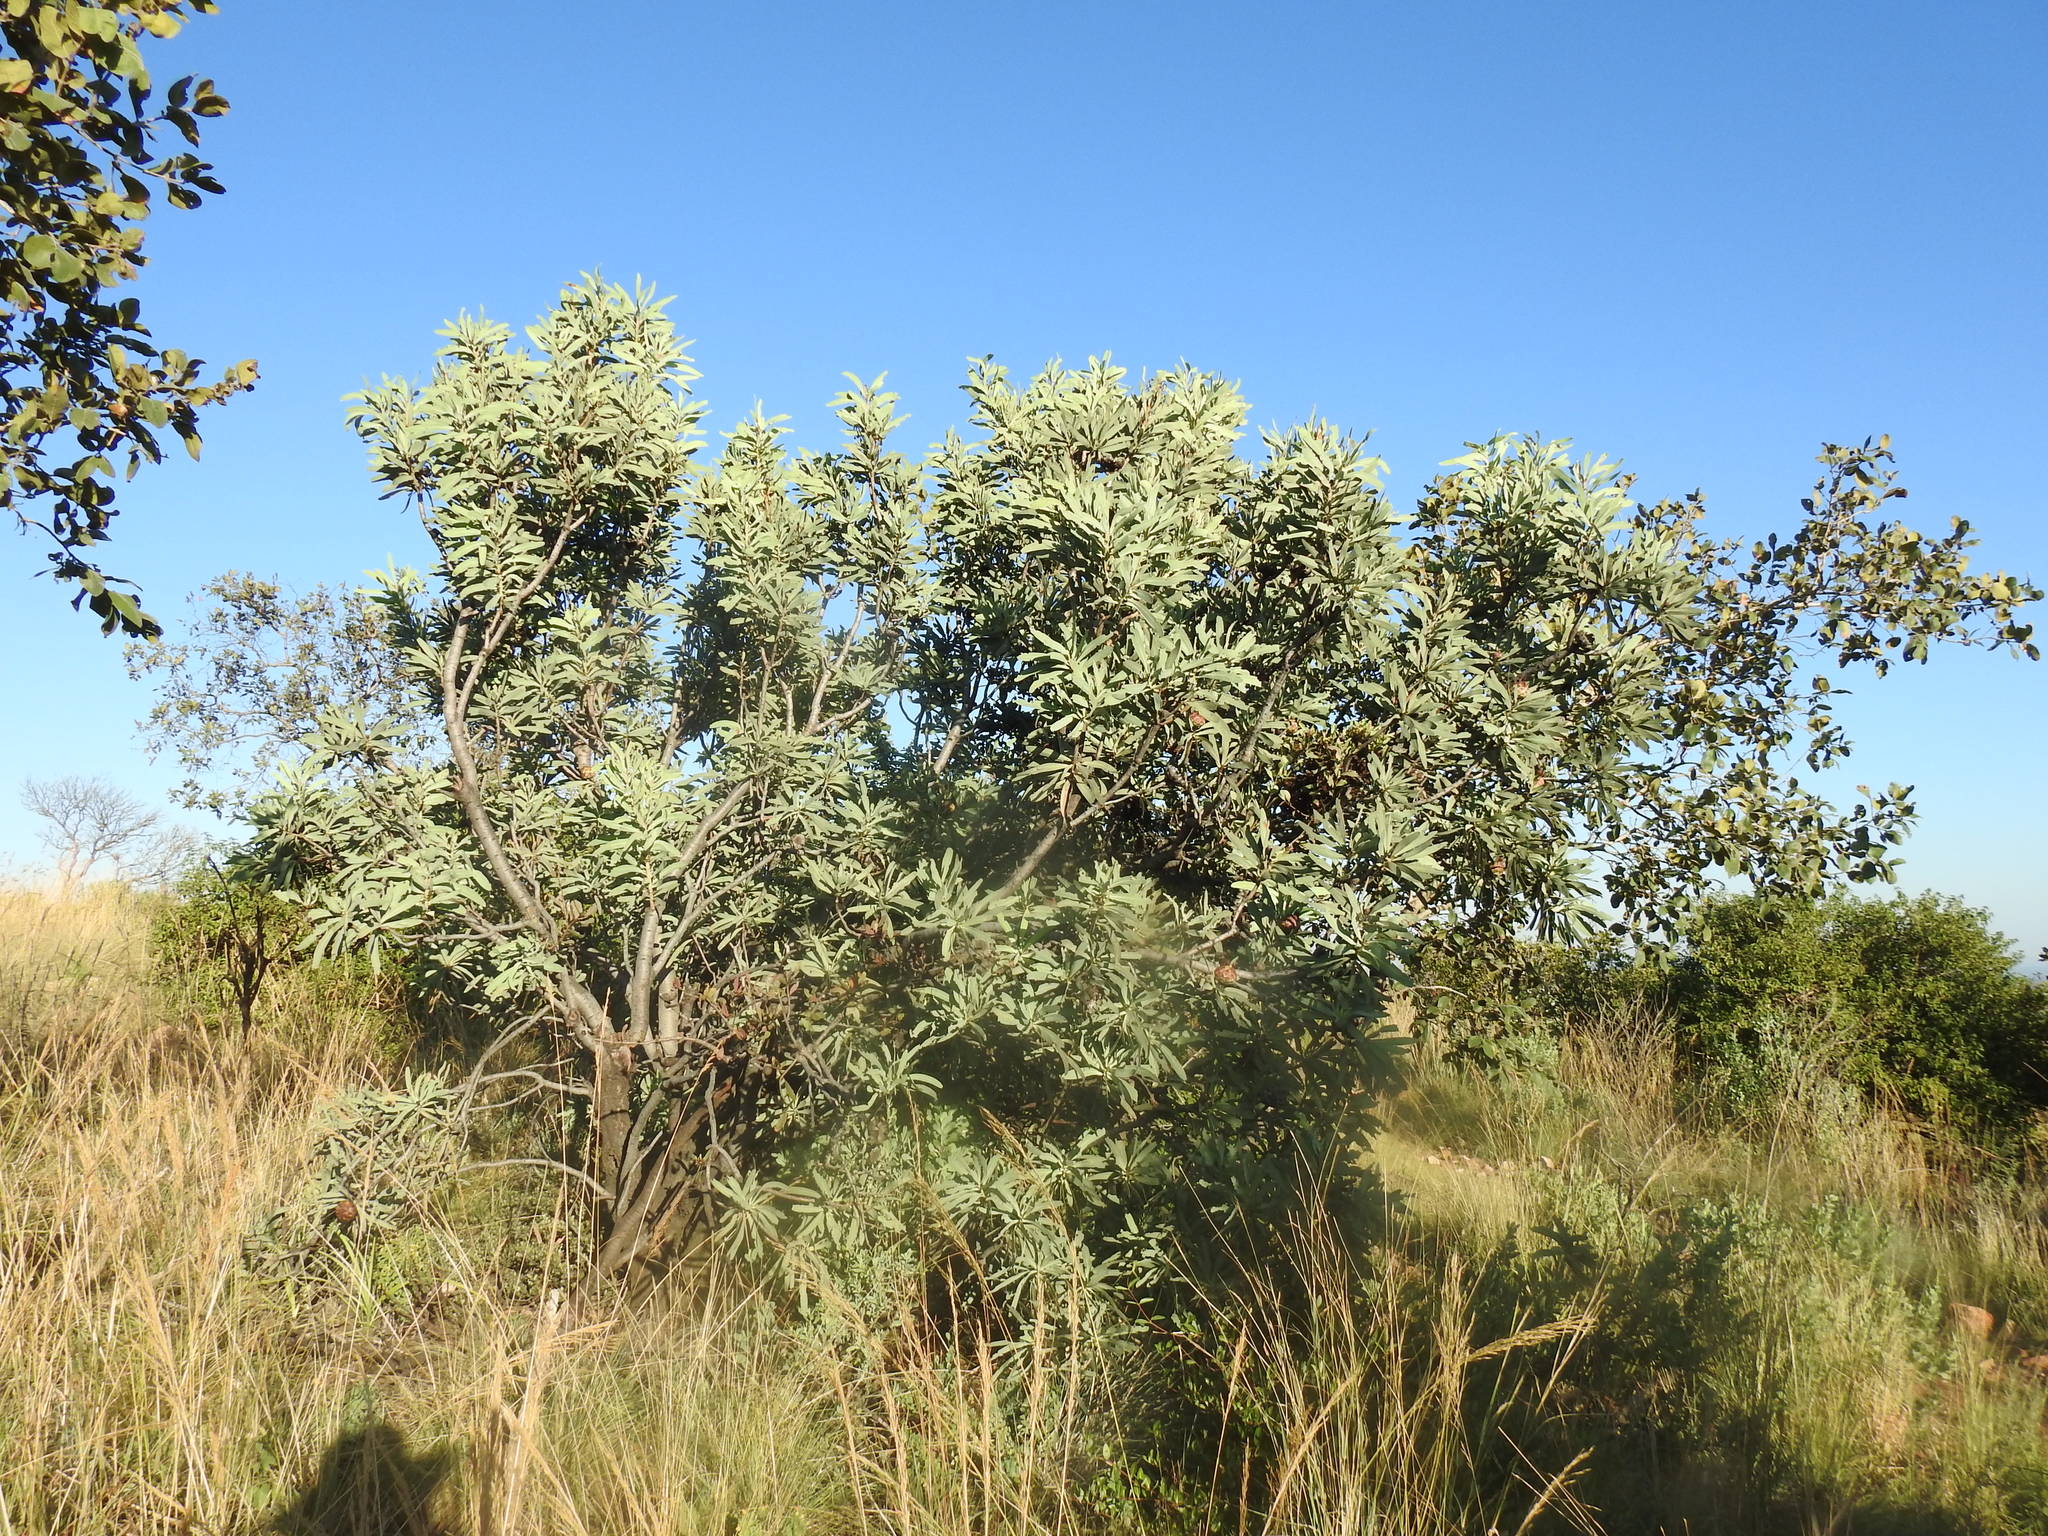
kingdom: Plantae
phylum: Tracheophyta
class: Magnoliopsida
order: Proteales
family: Proteaceae
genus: Protea
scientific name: Protea caffra
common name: Common sugarbush
